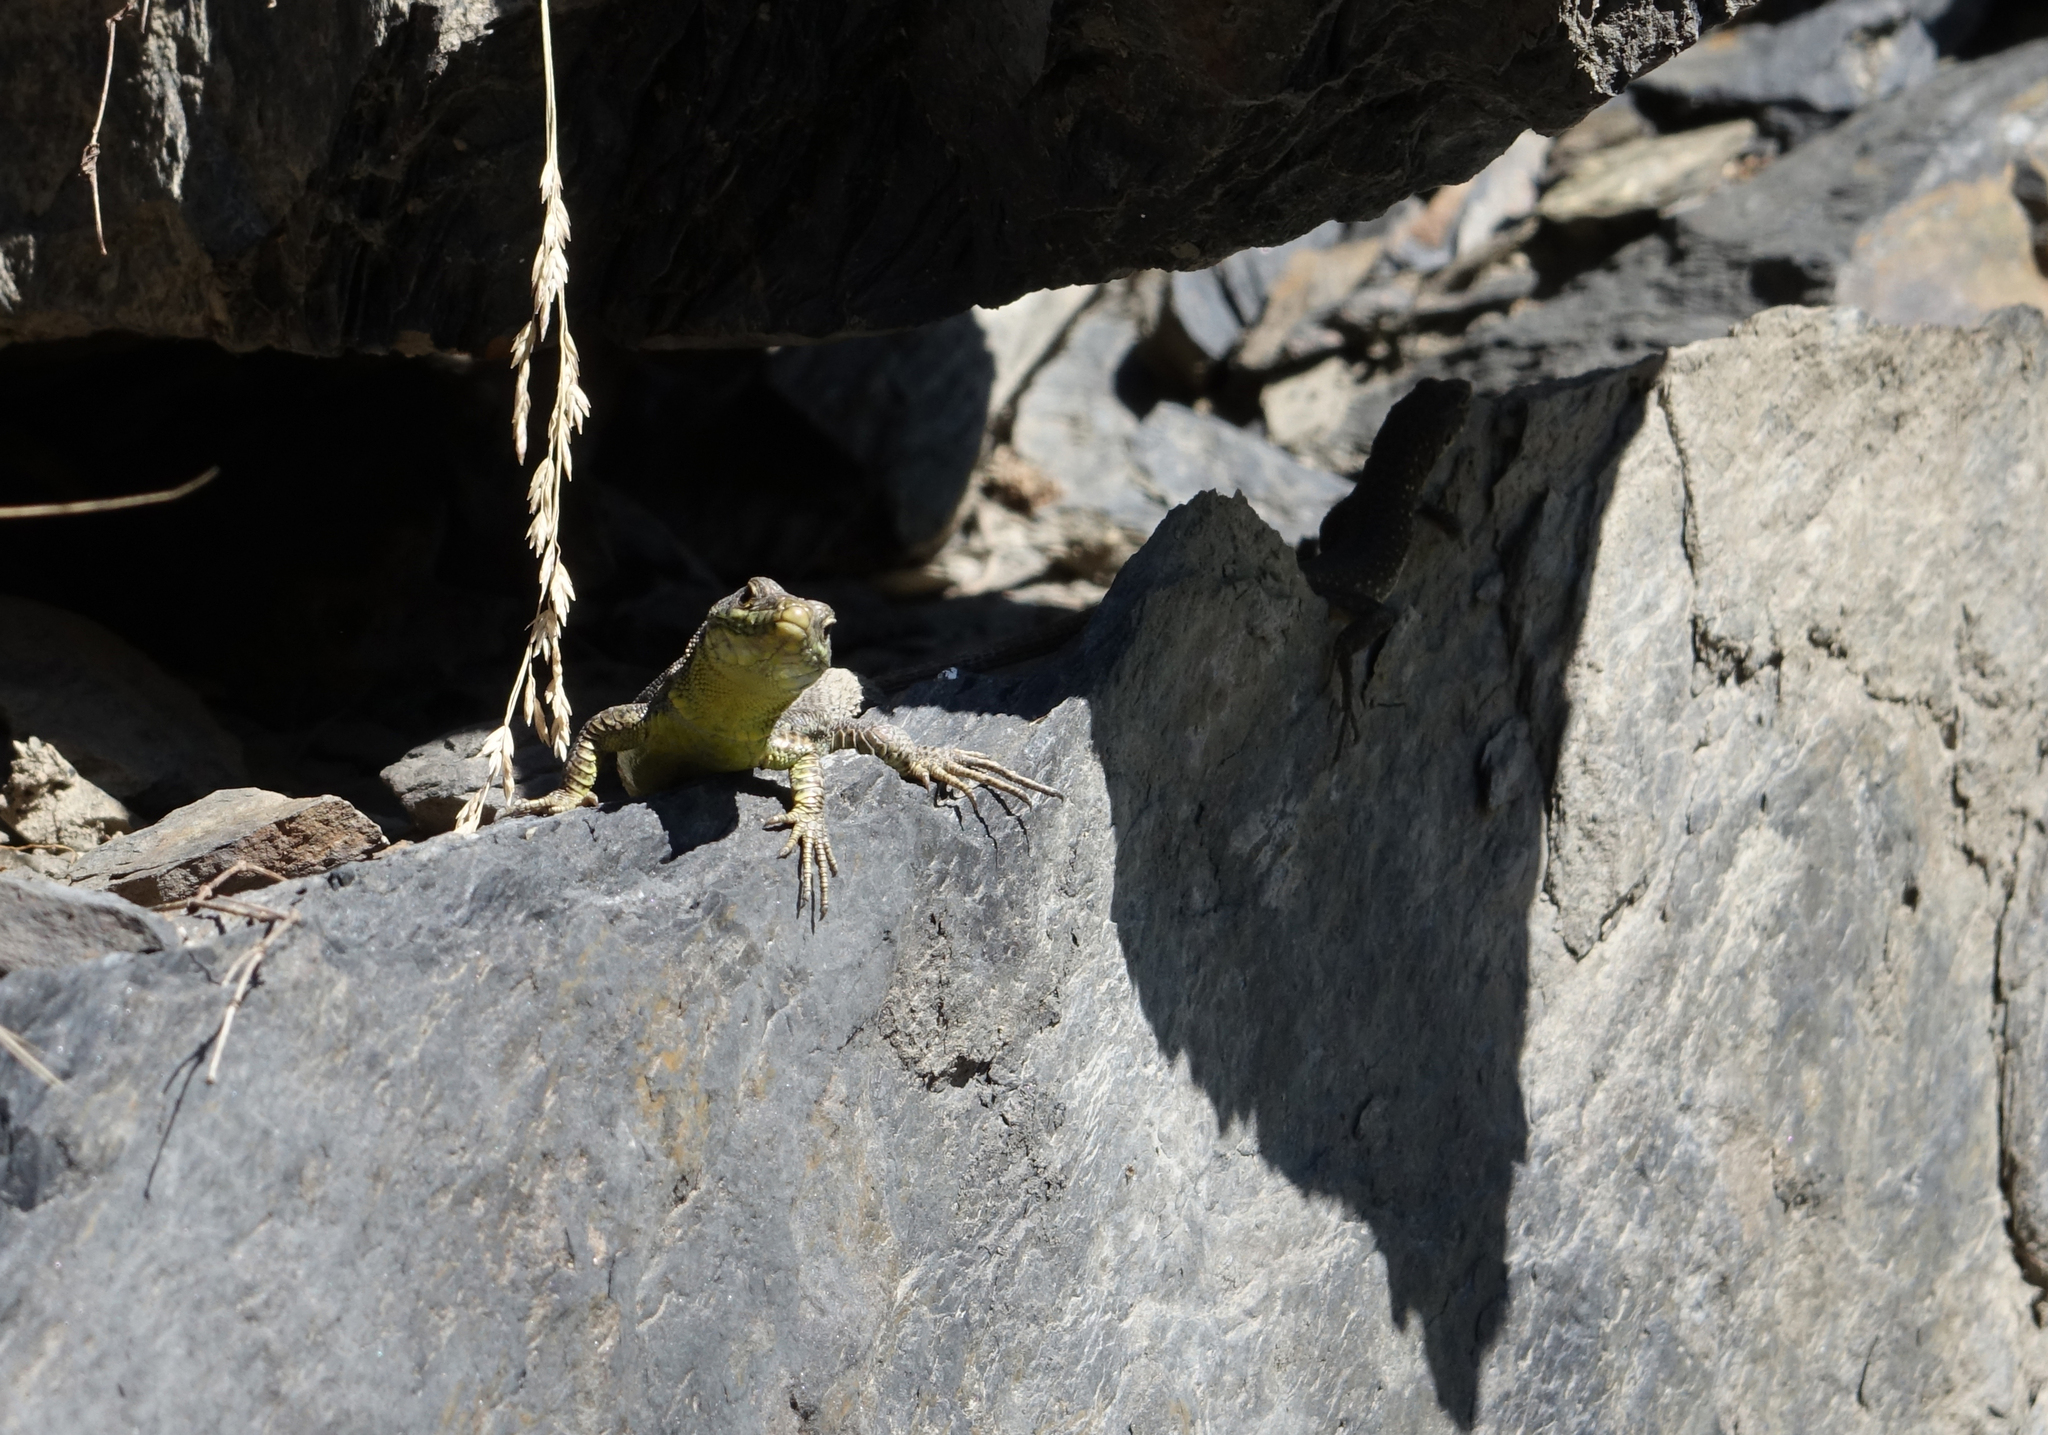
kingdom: Animalia
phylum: Chordata
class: Squamata
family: Lacertidae
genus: Darevskia
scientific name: Darevskia rudis
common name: Spiny-tailed lizard
